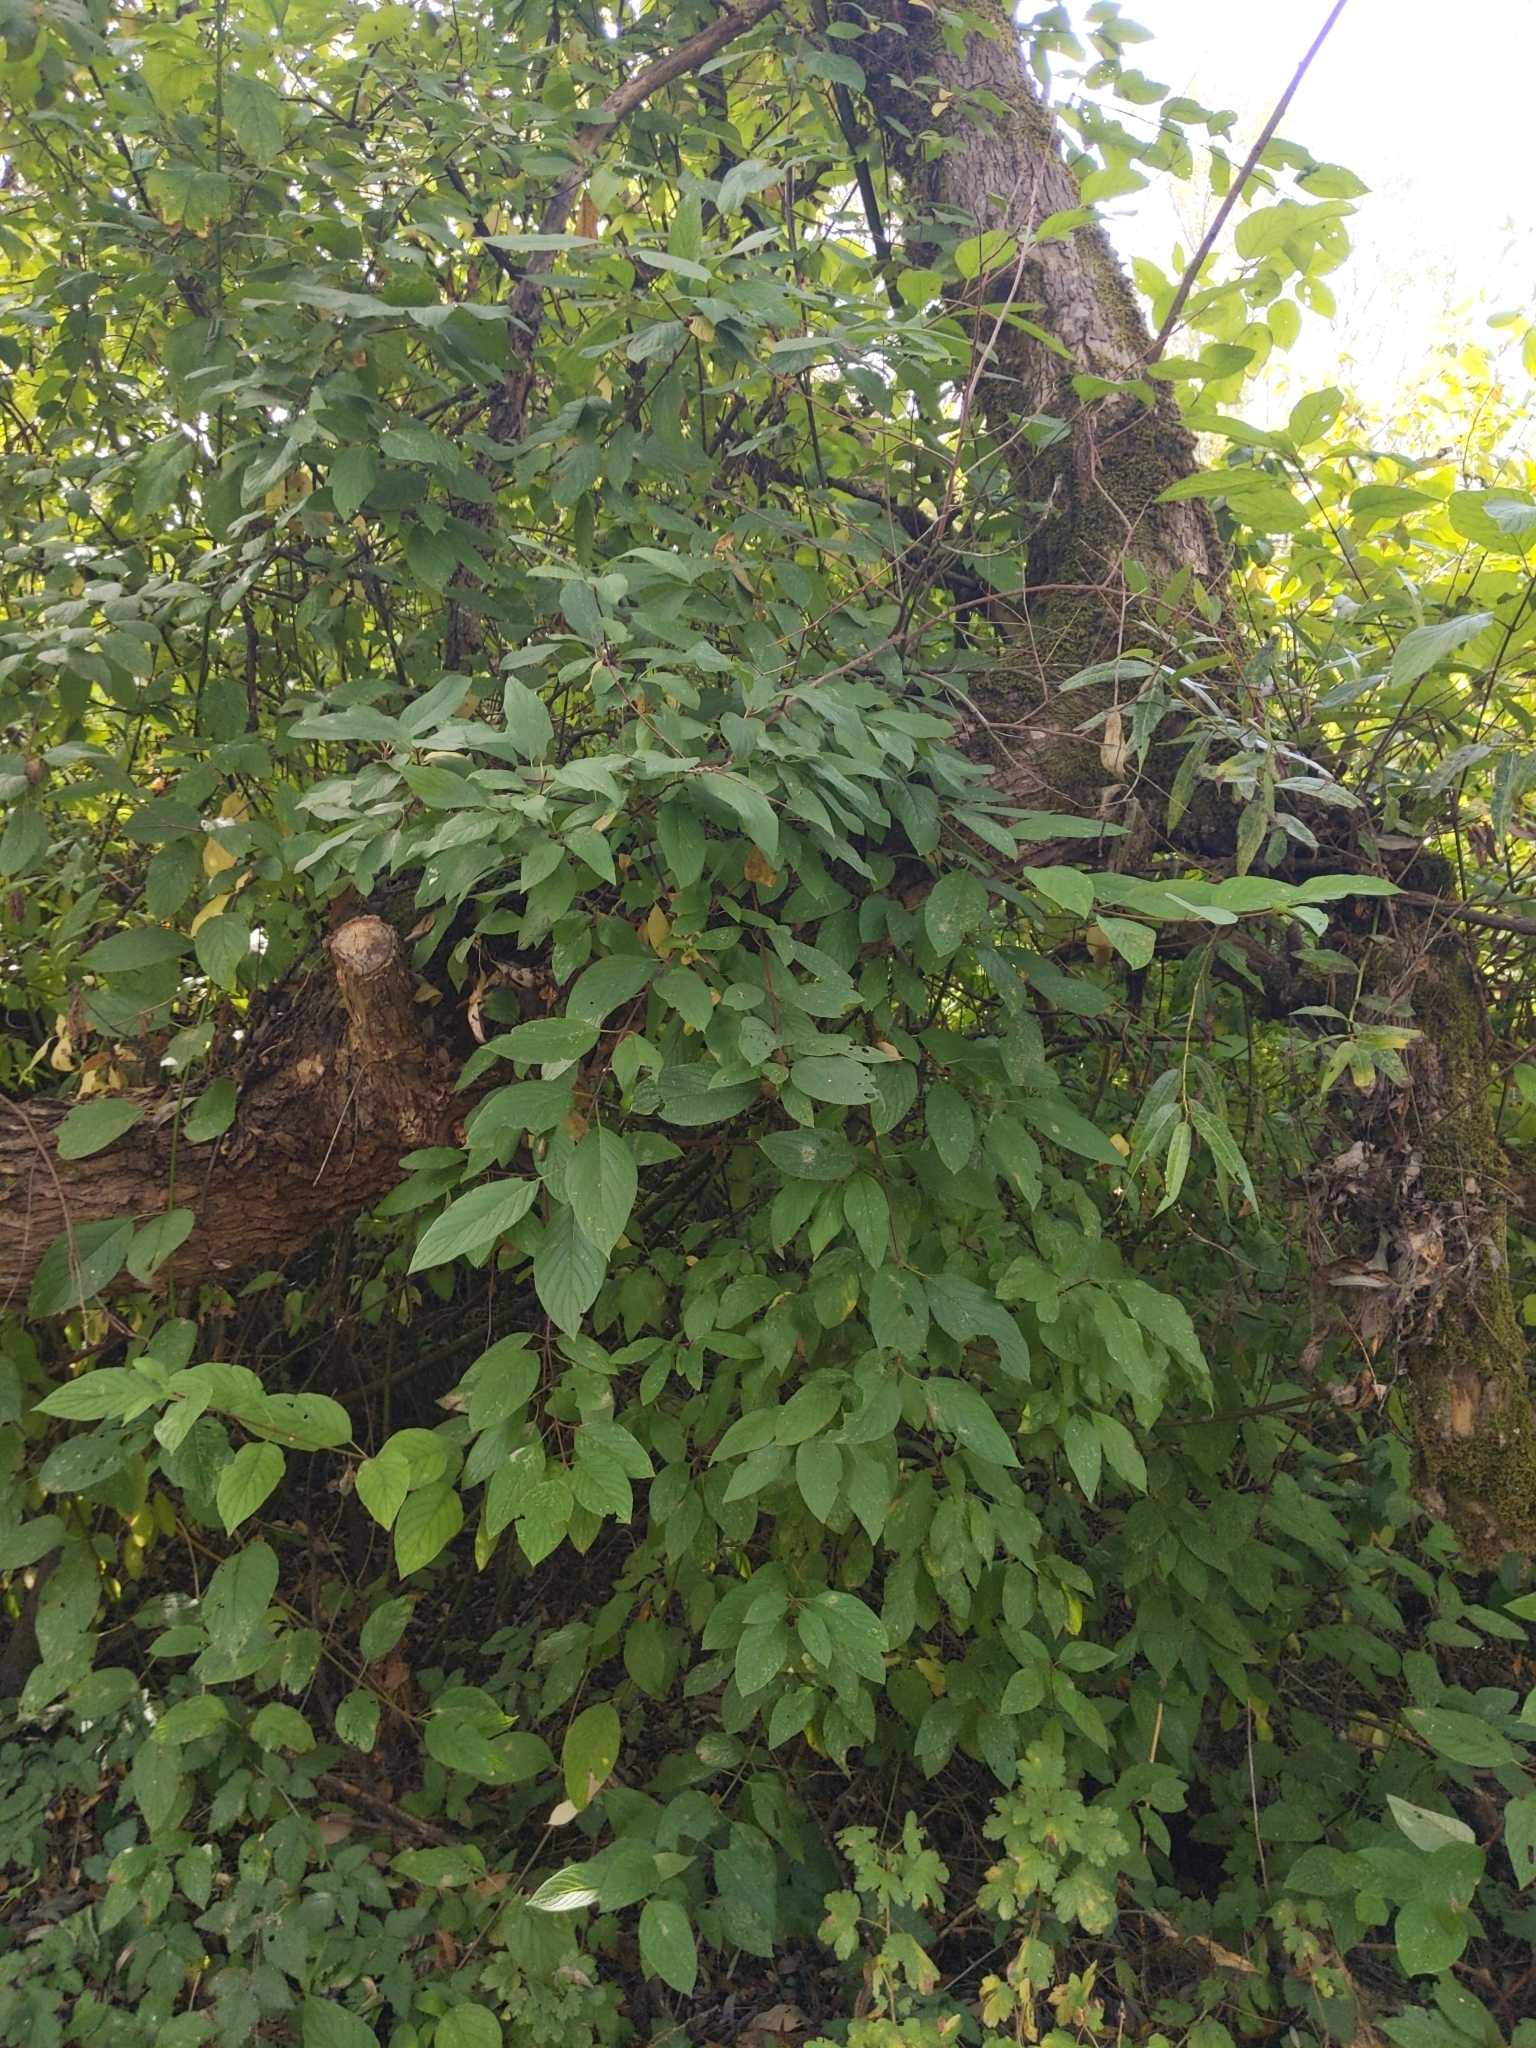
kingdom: Plantae
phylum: Tracheophyta
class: Magnoliopsida
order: Cornales
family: Cornaceae
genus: Cornus
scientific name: Cornus sericea
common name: Red-osier dogwood
